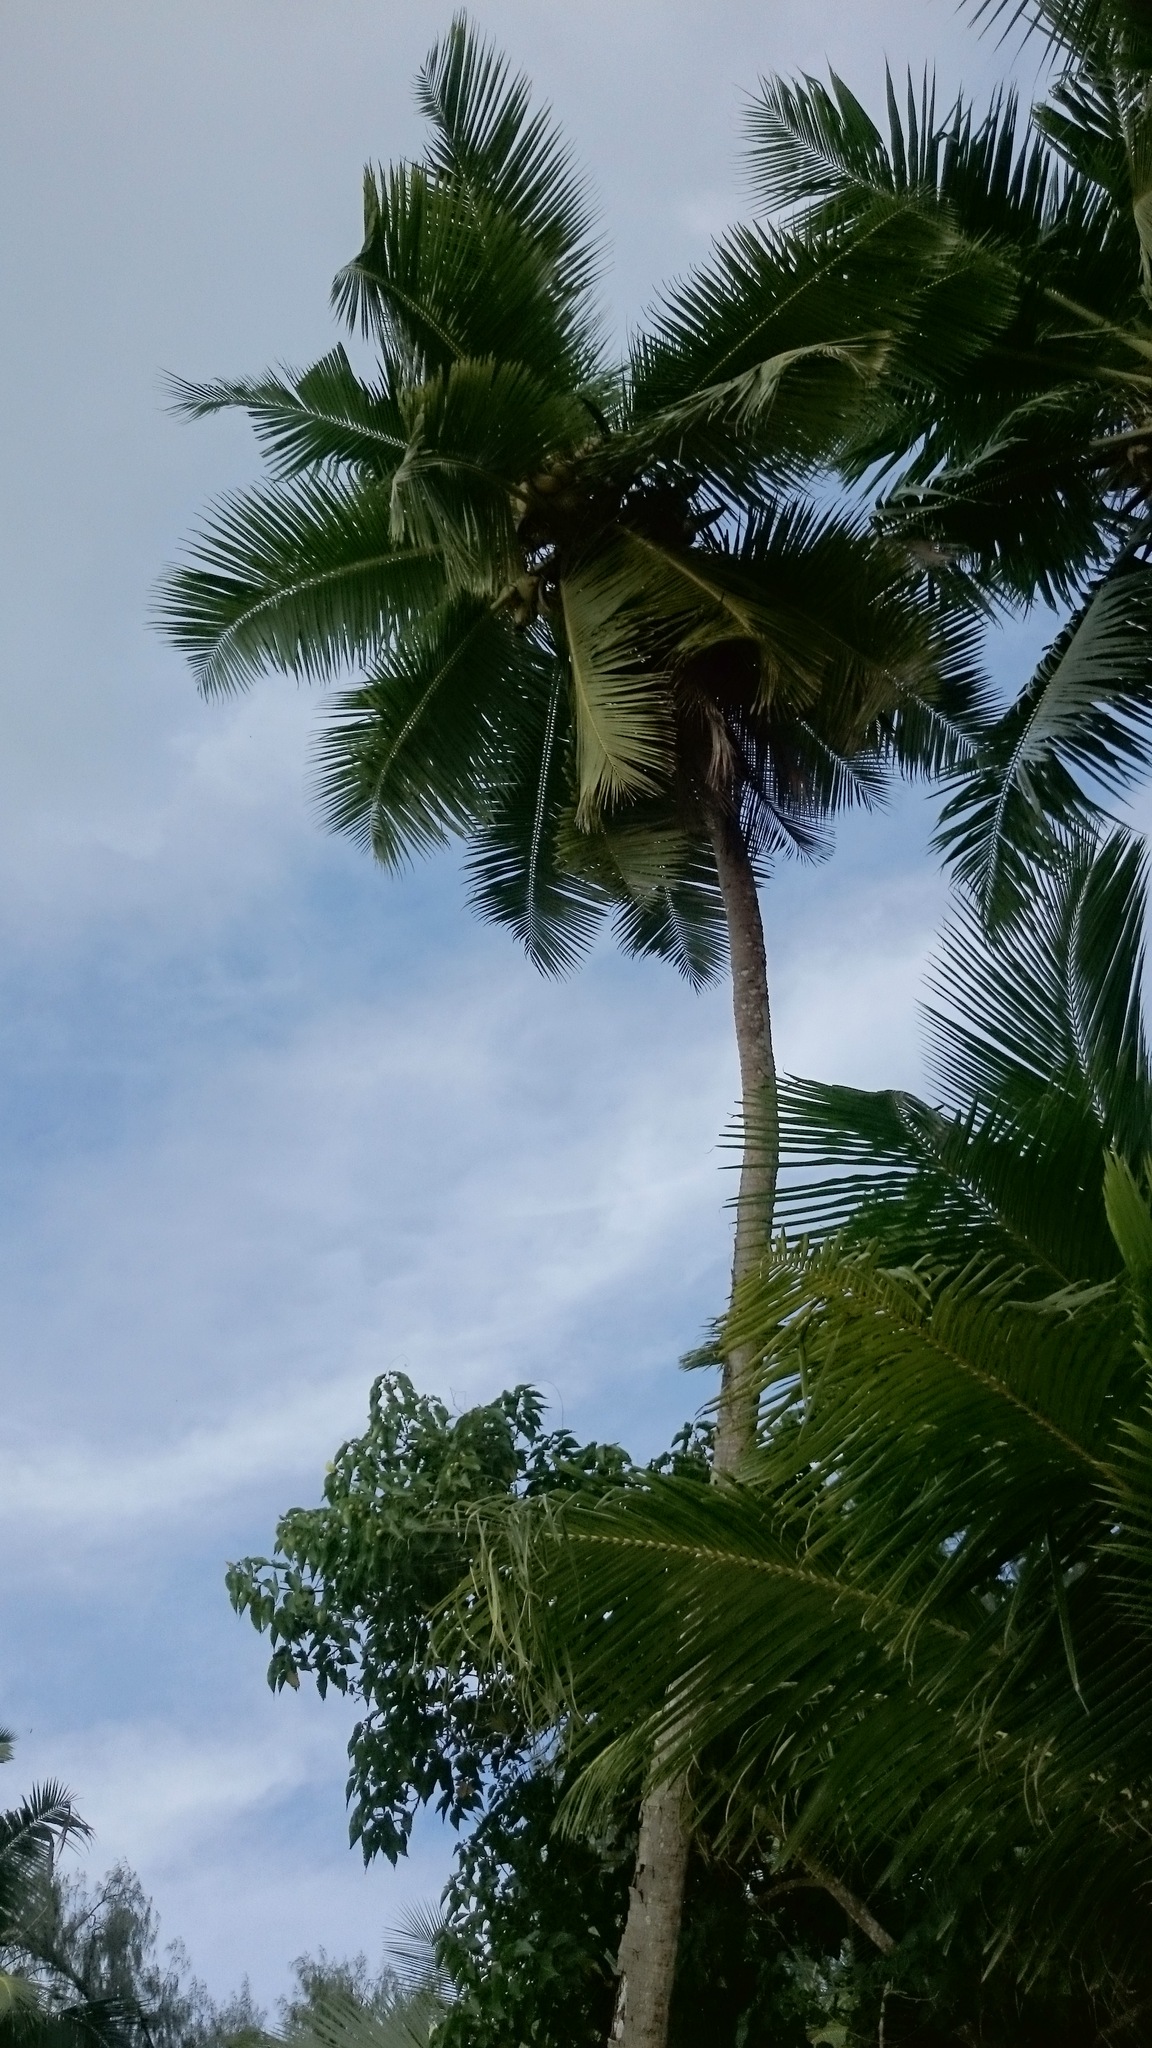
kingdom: Plantae
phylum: Tracheophyta
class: Liliopsida
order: Arecales
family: Arecaceae
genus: Cocos
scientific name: Cocos nucifera
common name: Coconut palm
